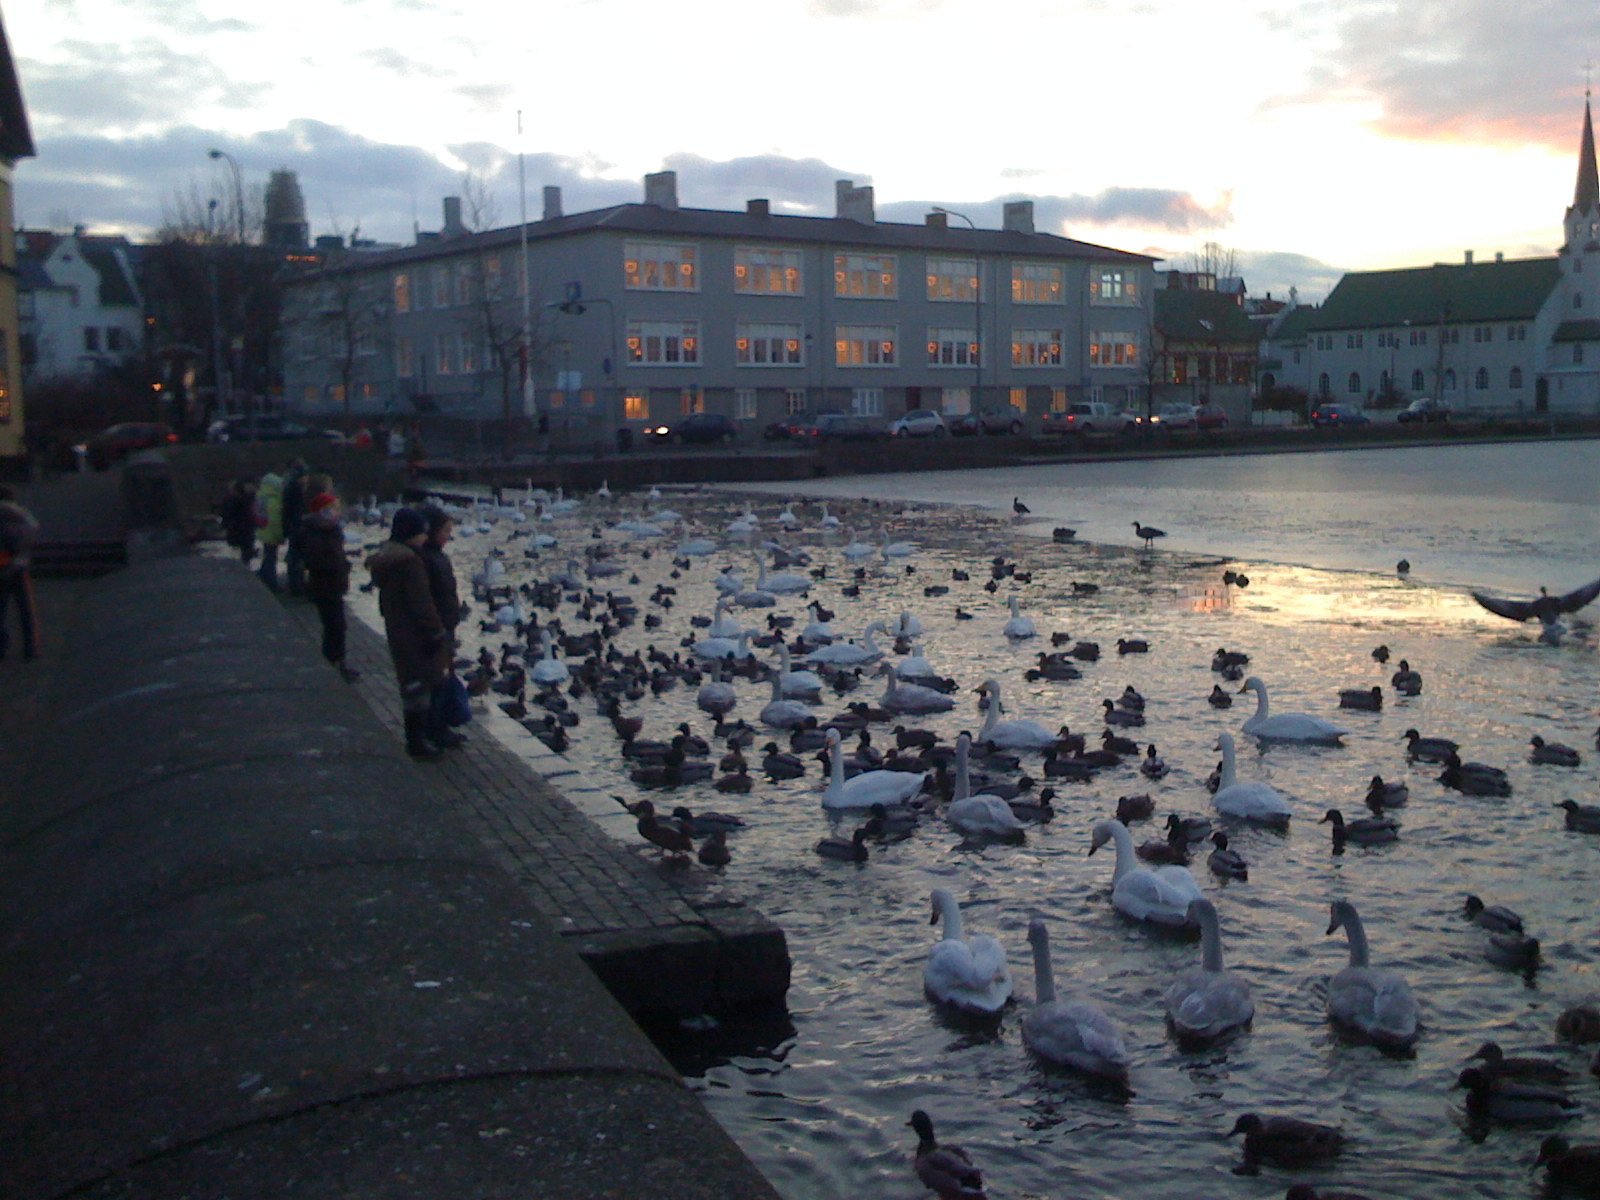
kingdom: Animalia
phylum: Chordata
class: Aves
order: Anseriformes
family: Anatidae
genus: Cygnus
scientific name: Cygnus cygnus
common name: Whooper swan
